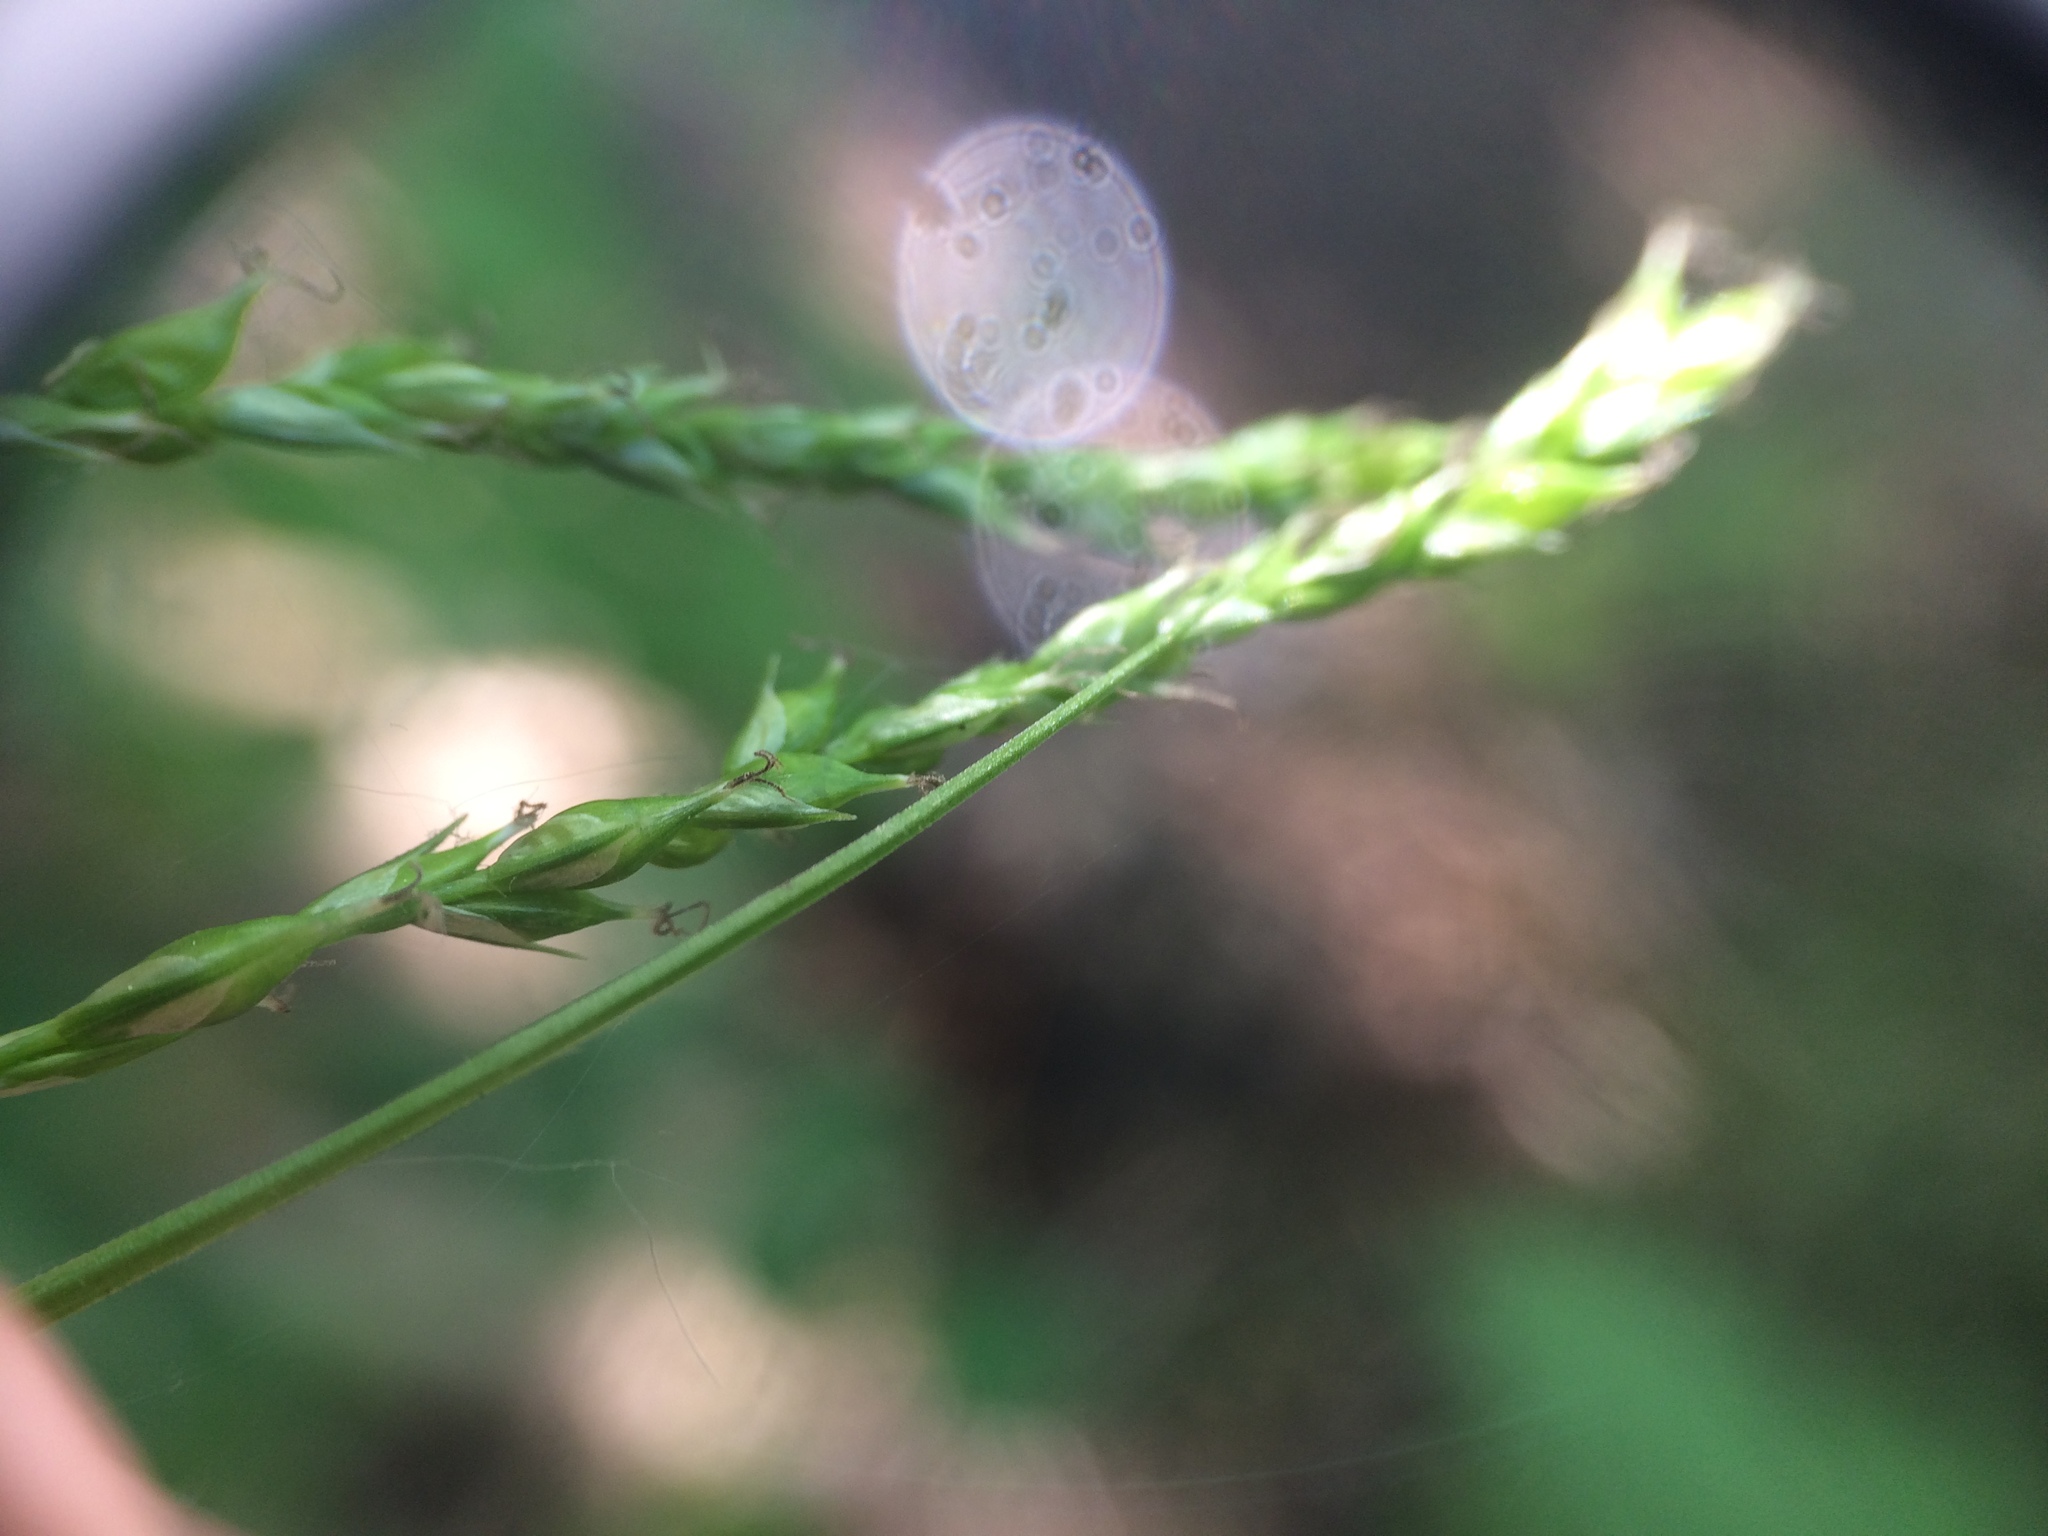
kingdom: Plantae
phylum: Tracheophyta
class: Liliopsida
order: Poales
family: Cyperaceae
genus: Carex
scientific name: Carex arctata
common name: Black sedge
